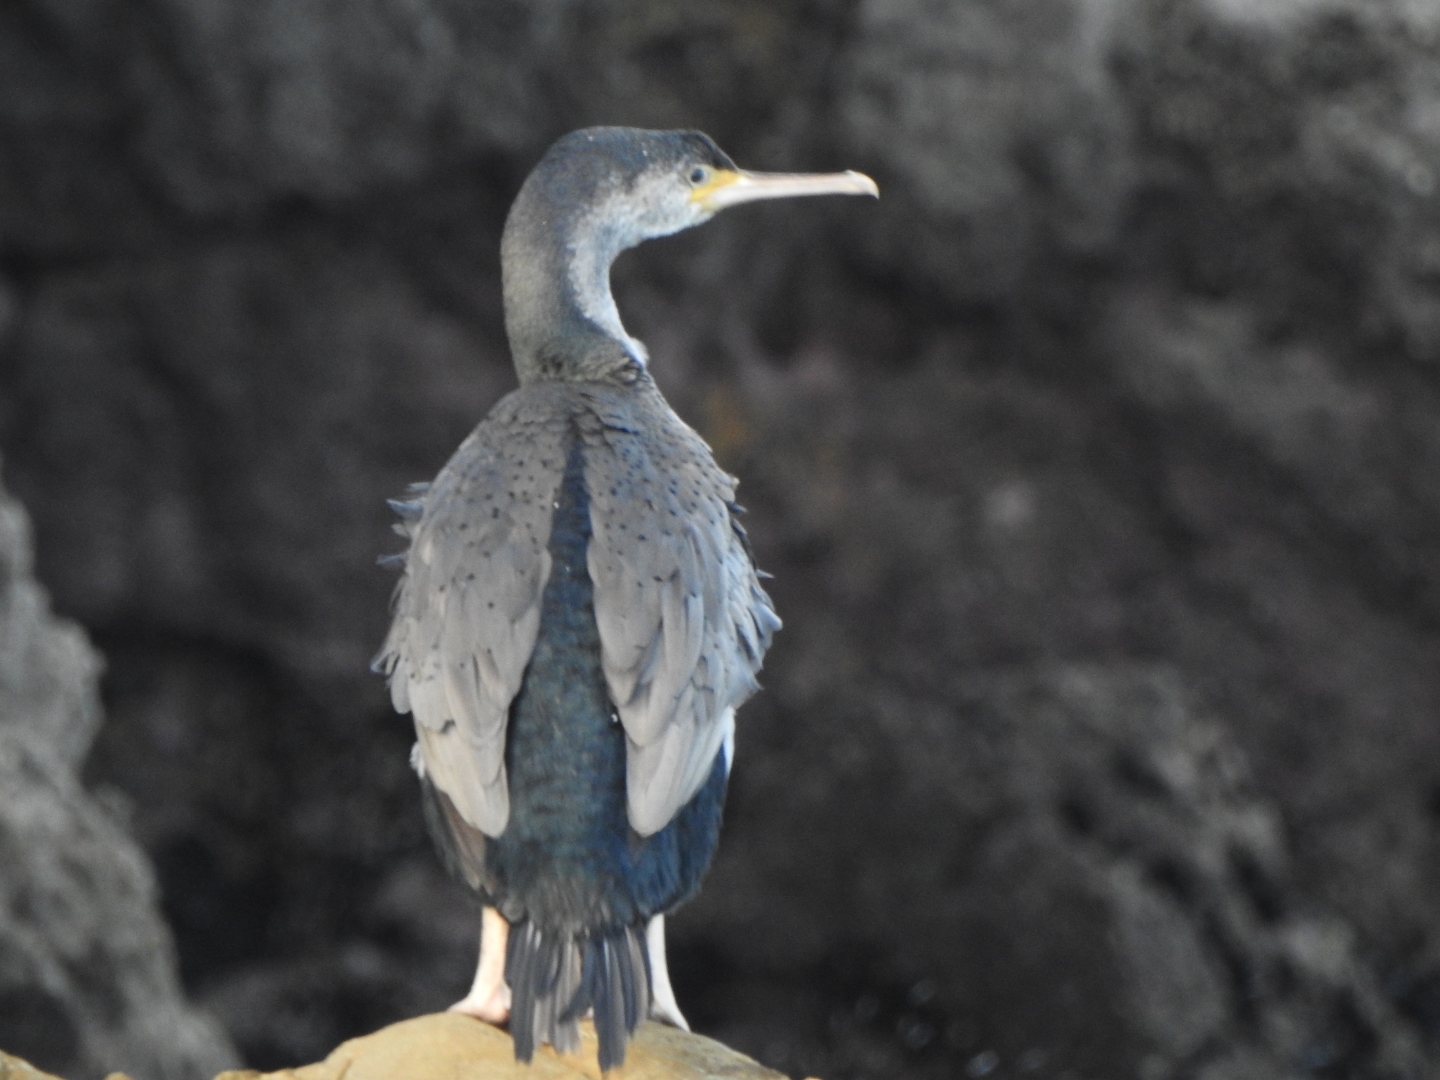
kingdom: Animalia
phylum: Chordata
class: Aves
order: Suliformes
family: Phalacrocoracidae
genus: Phalacrocorax
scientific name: Phalacrocorax punctatus
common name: Spotted shag
